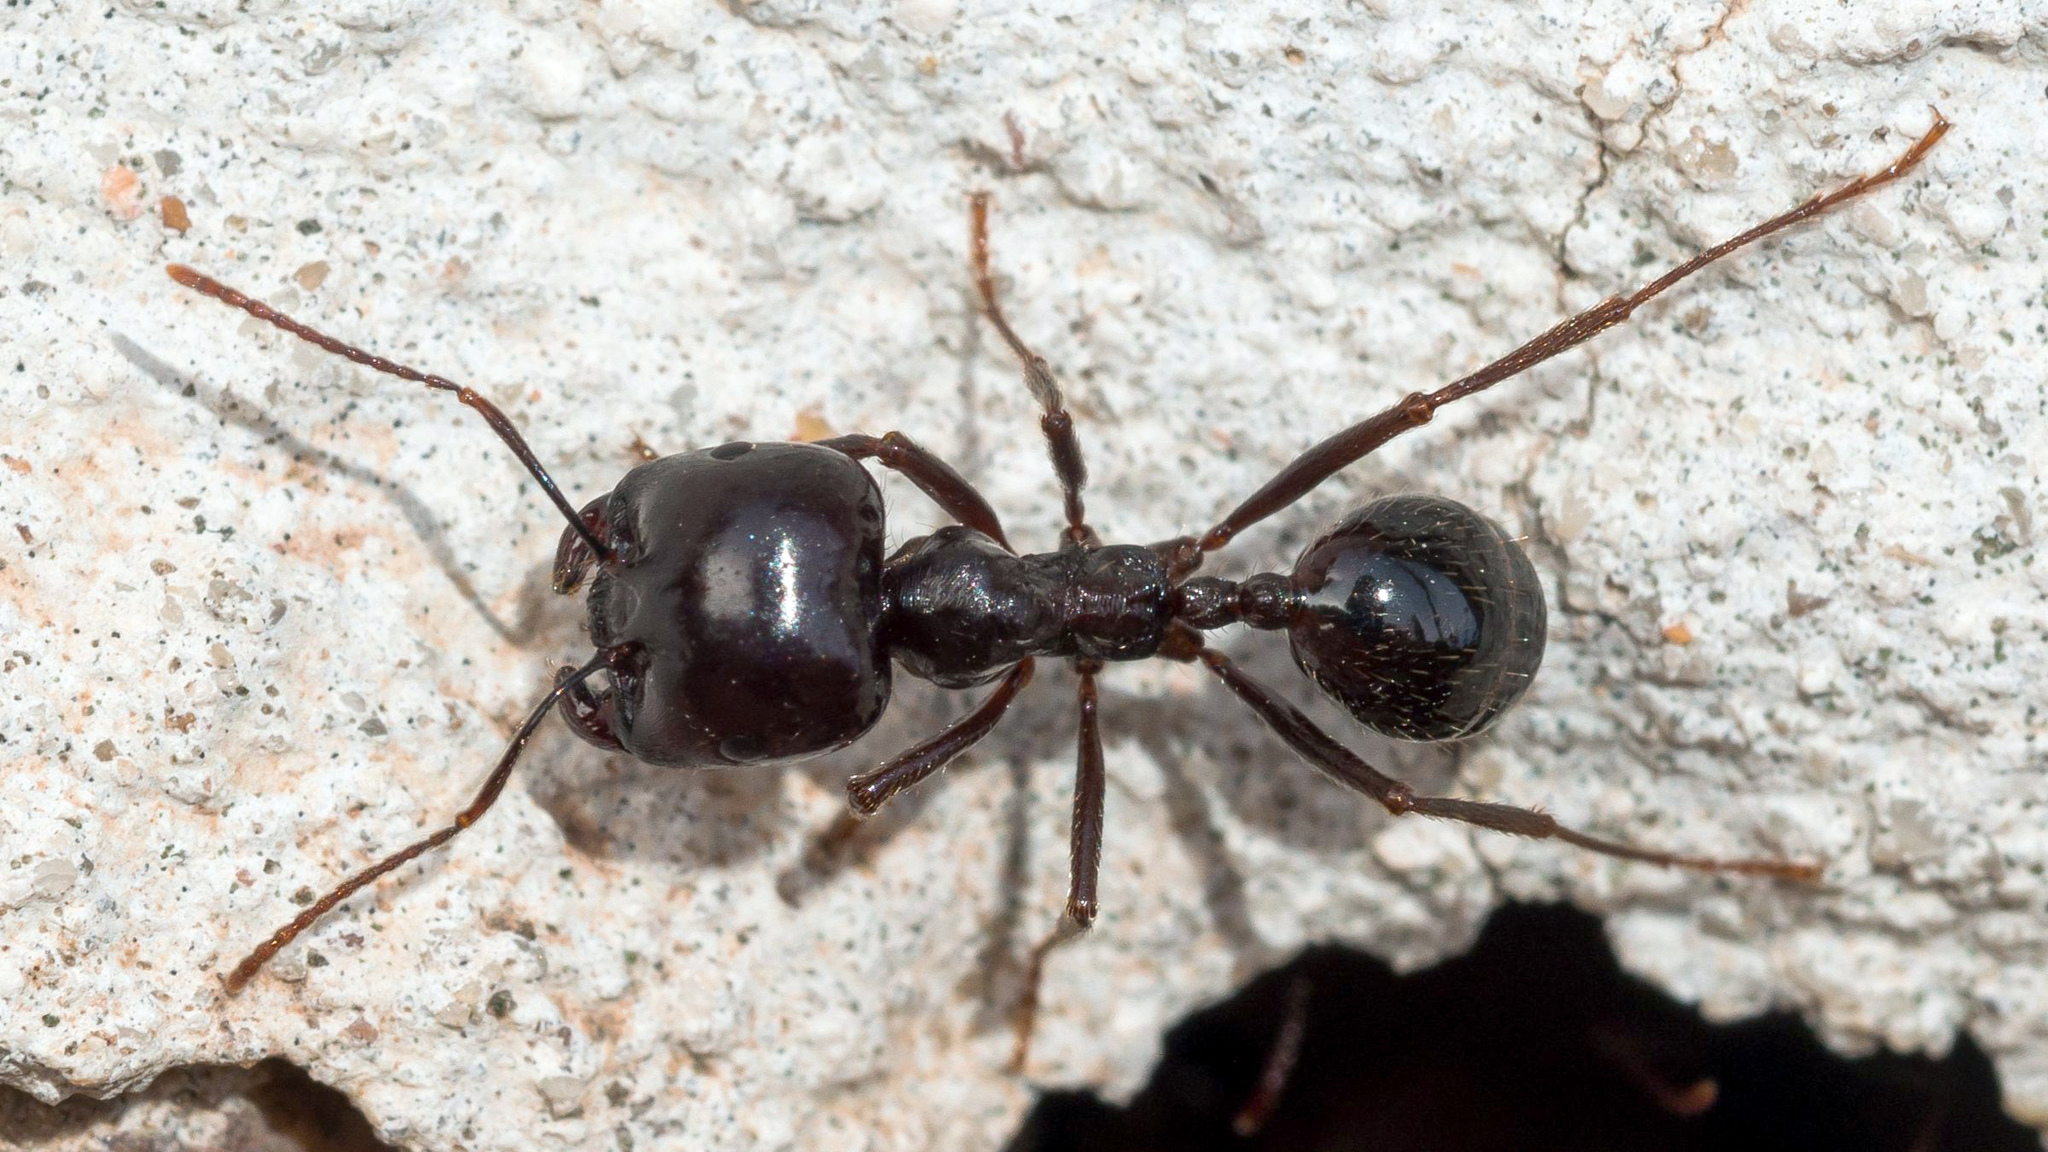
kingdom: Animalia
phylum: Arthropoda
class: Insecta
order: Hymenoptera
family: Formicidae
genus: Messor
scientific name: Messor capitatus
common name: European seed harvesting ant
